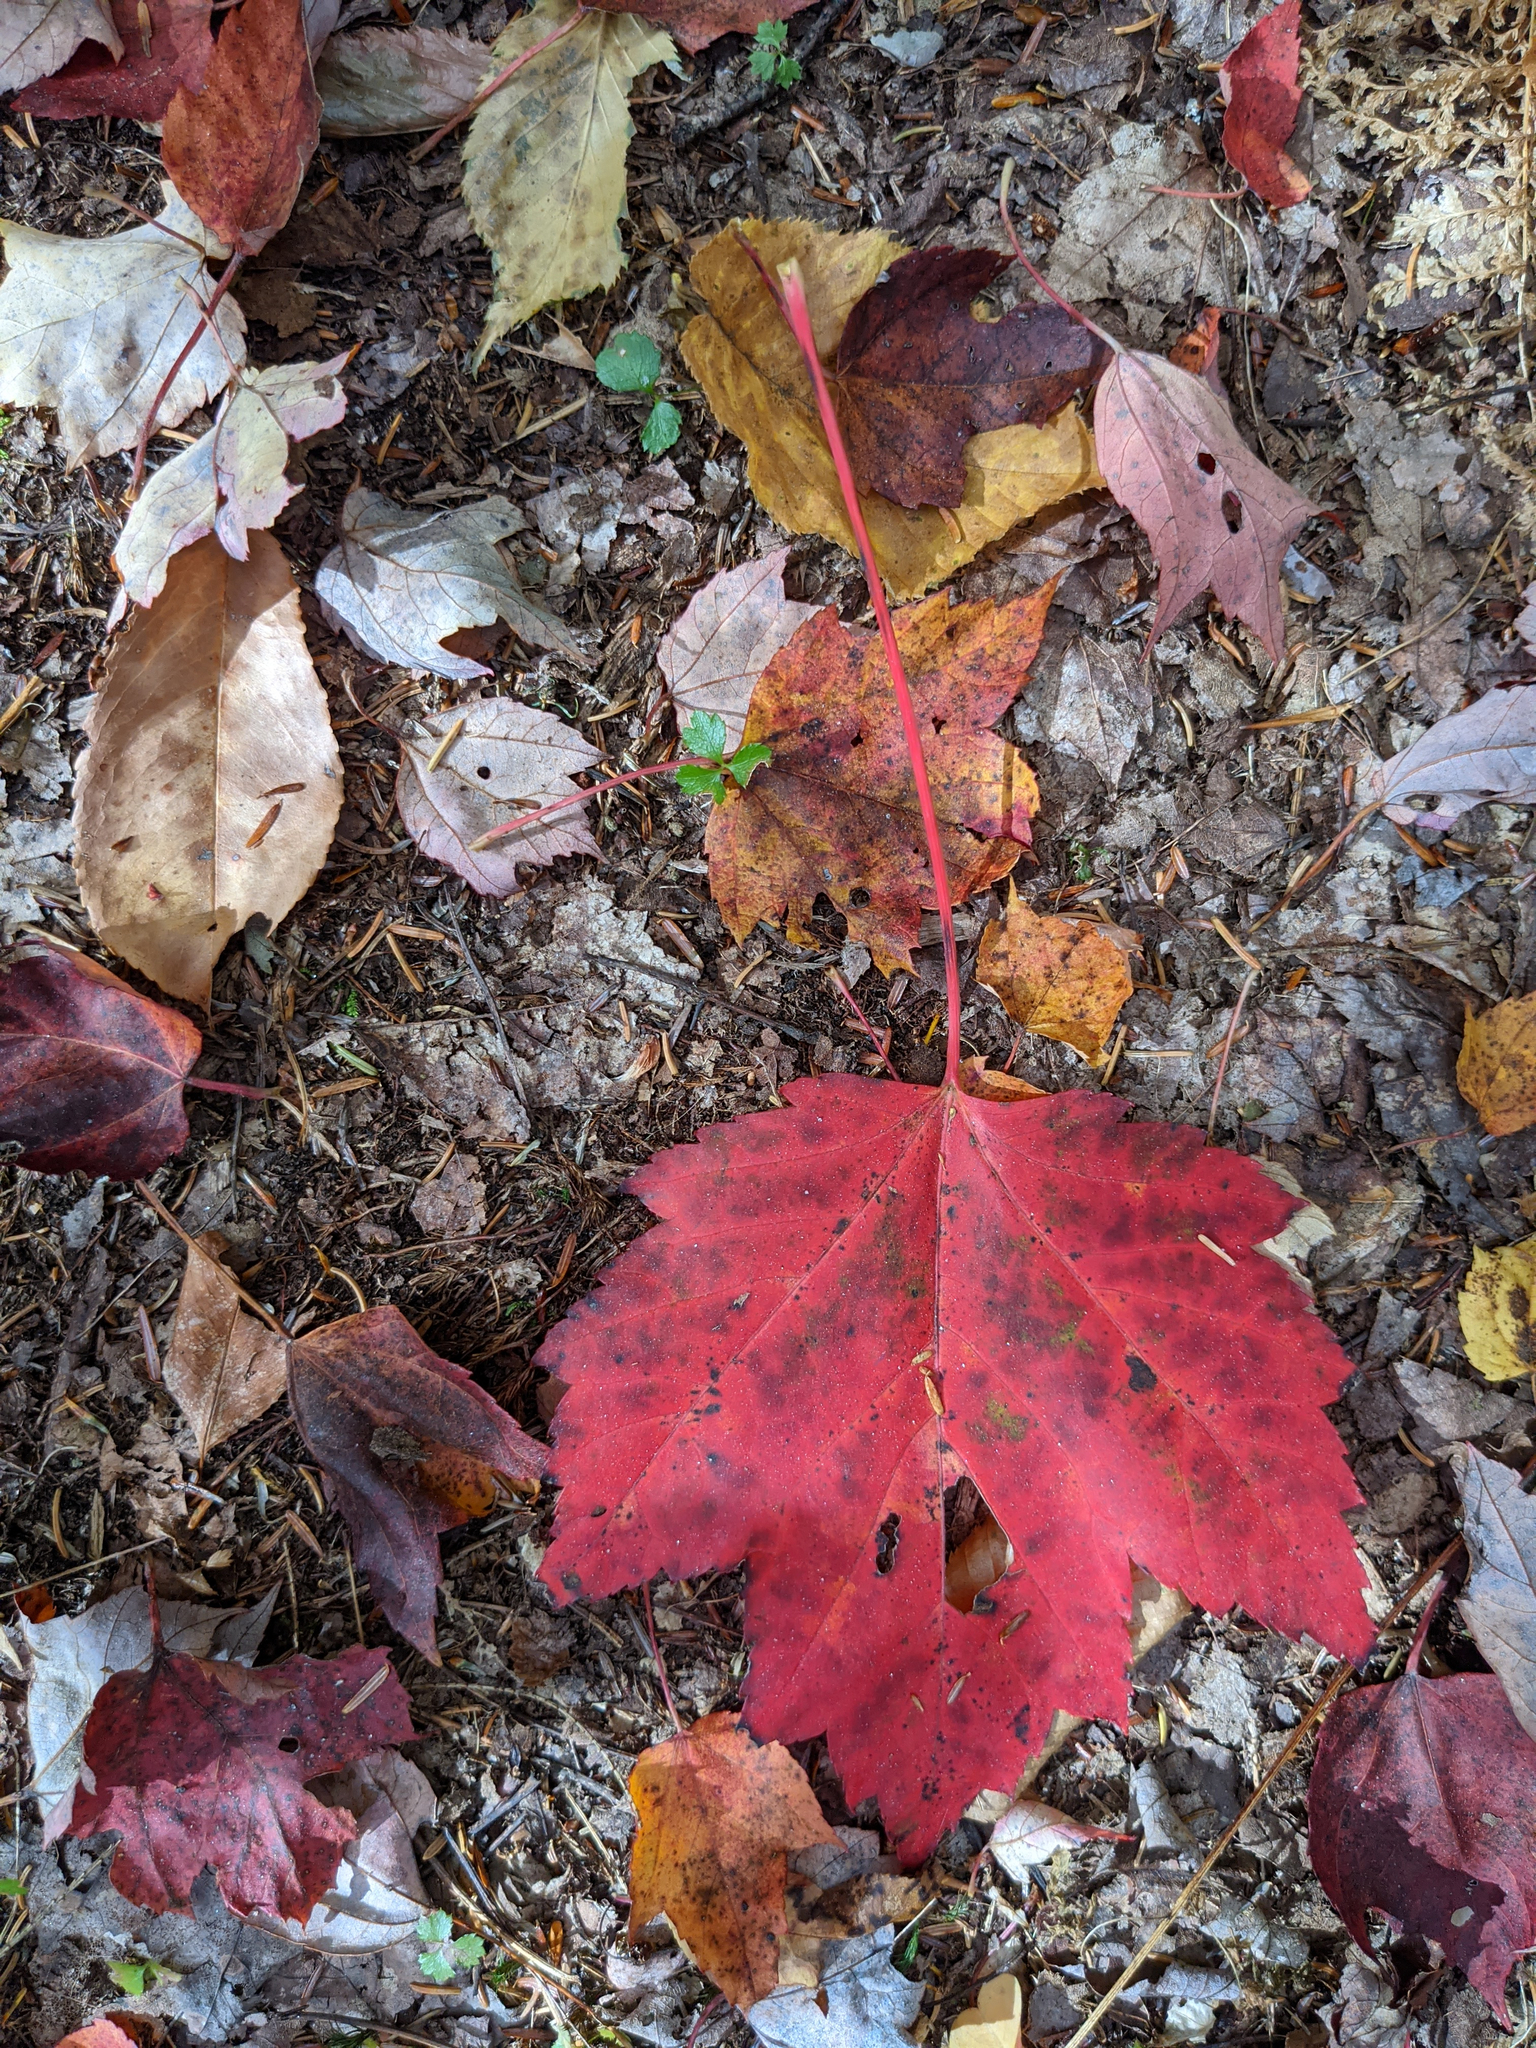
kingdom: Plantae
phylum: Tracheophyta
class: Magnoliopsida
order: Sapindales
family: Sapindaceae
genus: Acer
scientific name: Acer rubrum
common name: Red maple
